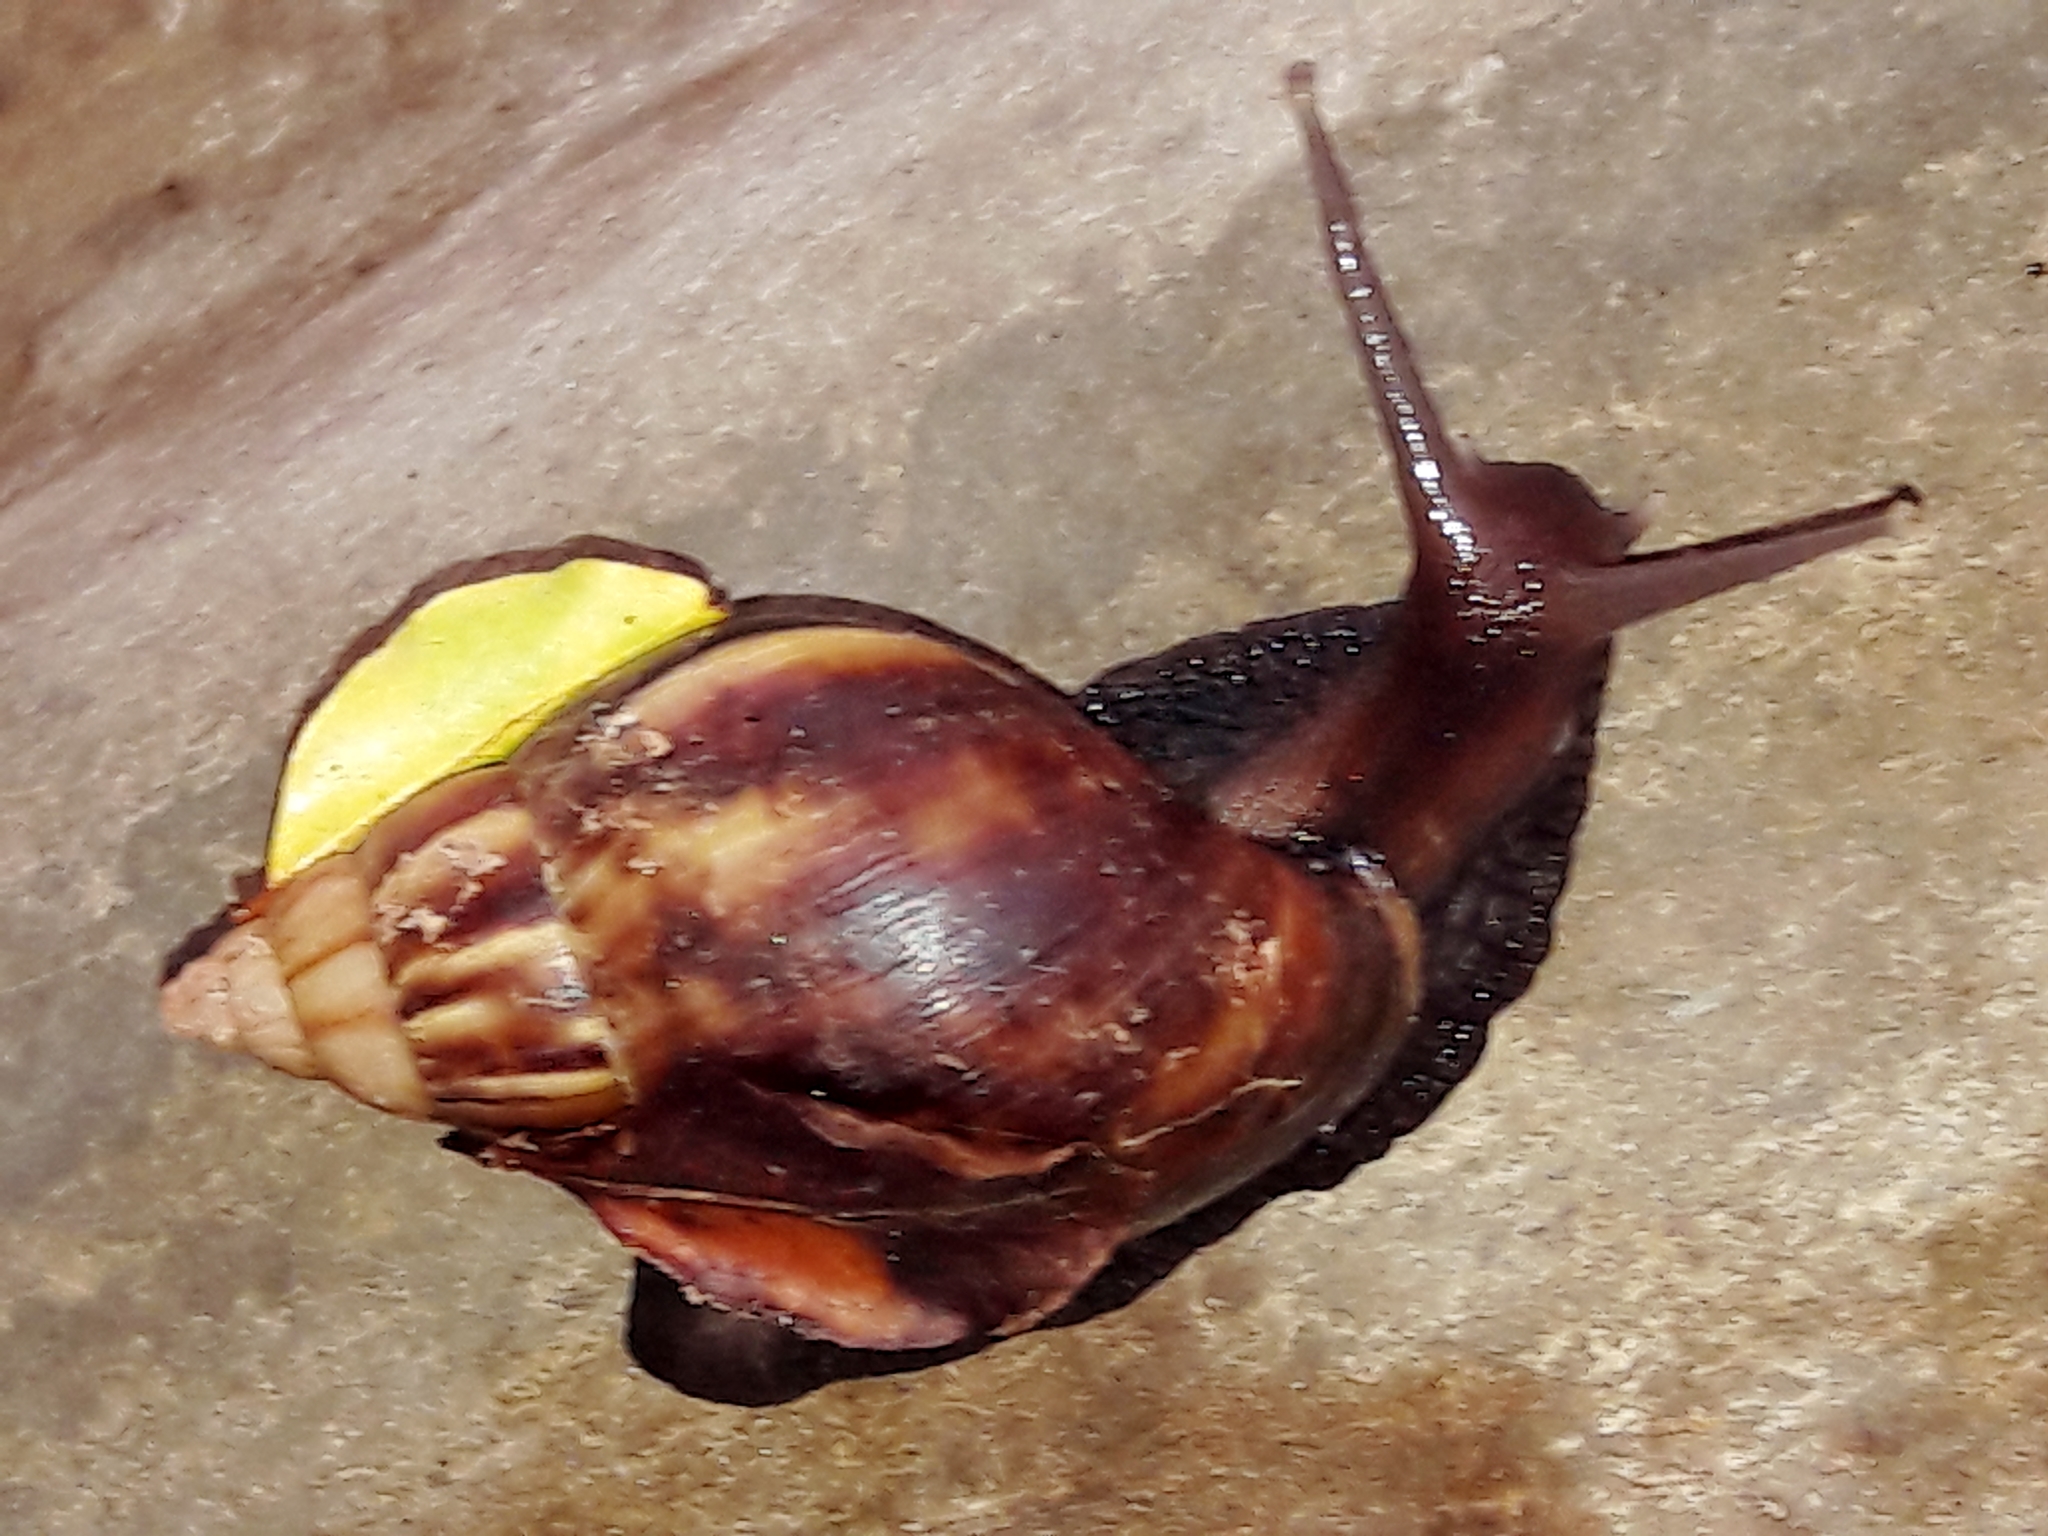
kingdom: Animalia
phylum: Mollusca
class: Gastropoda
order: Stylommatophora
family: Achatinidae
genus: Lissachatina
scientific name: Lissachatina fulica
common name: Giant african snail
